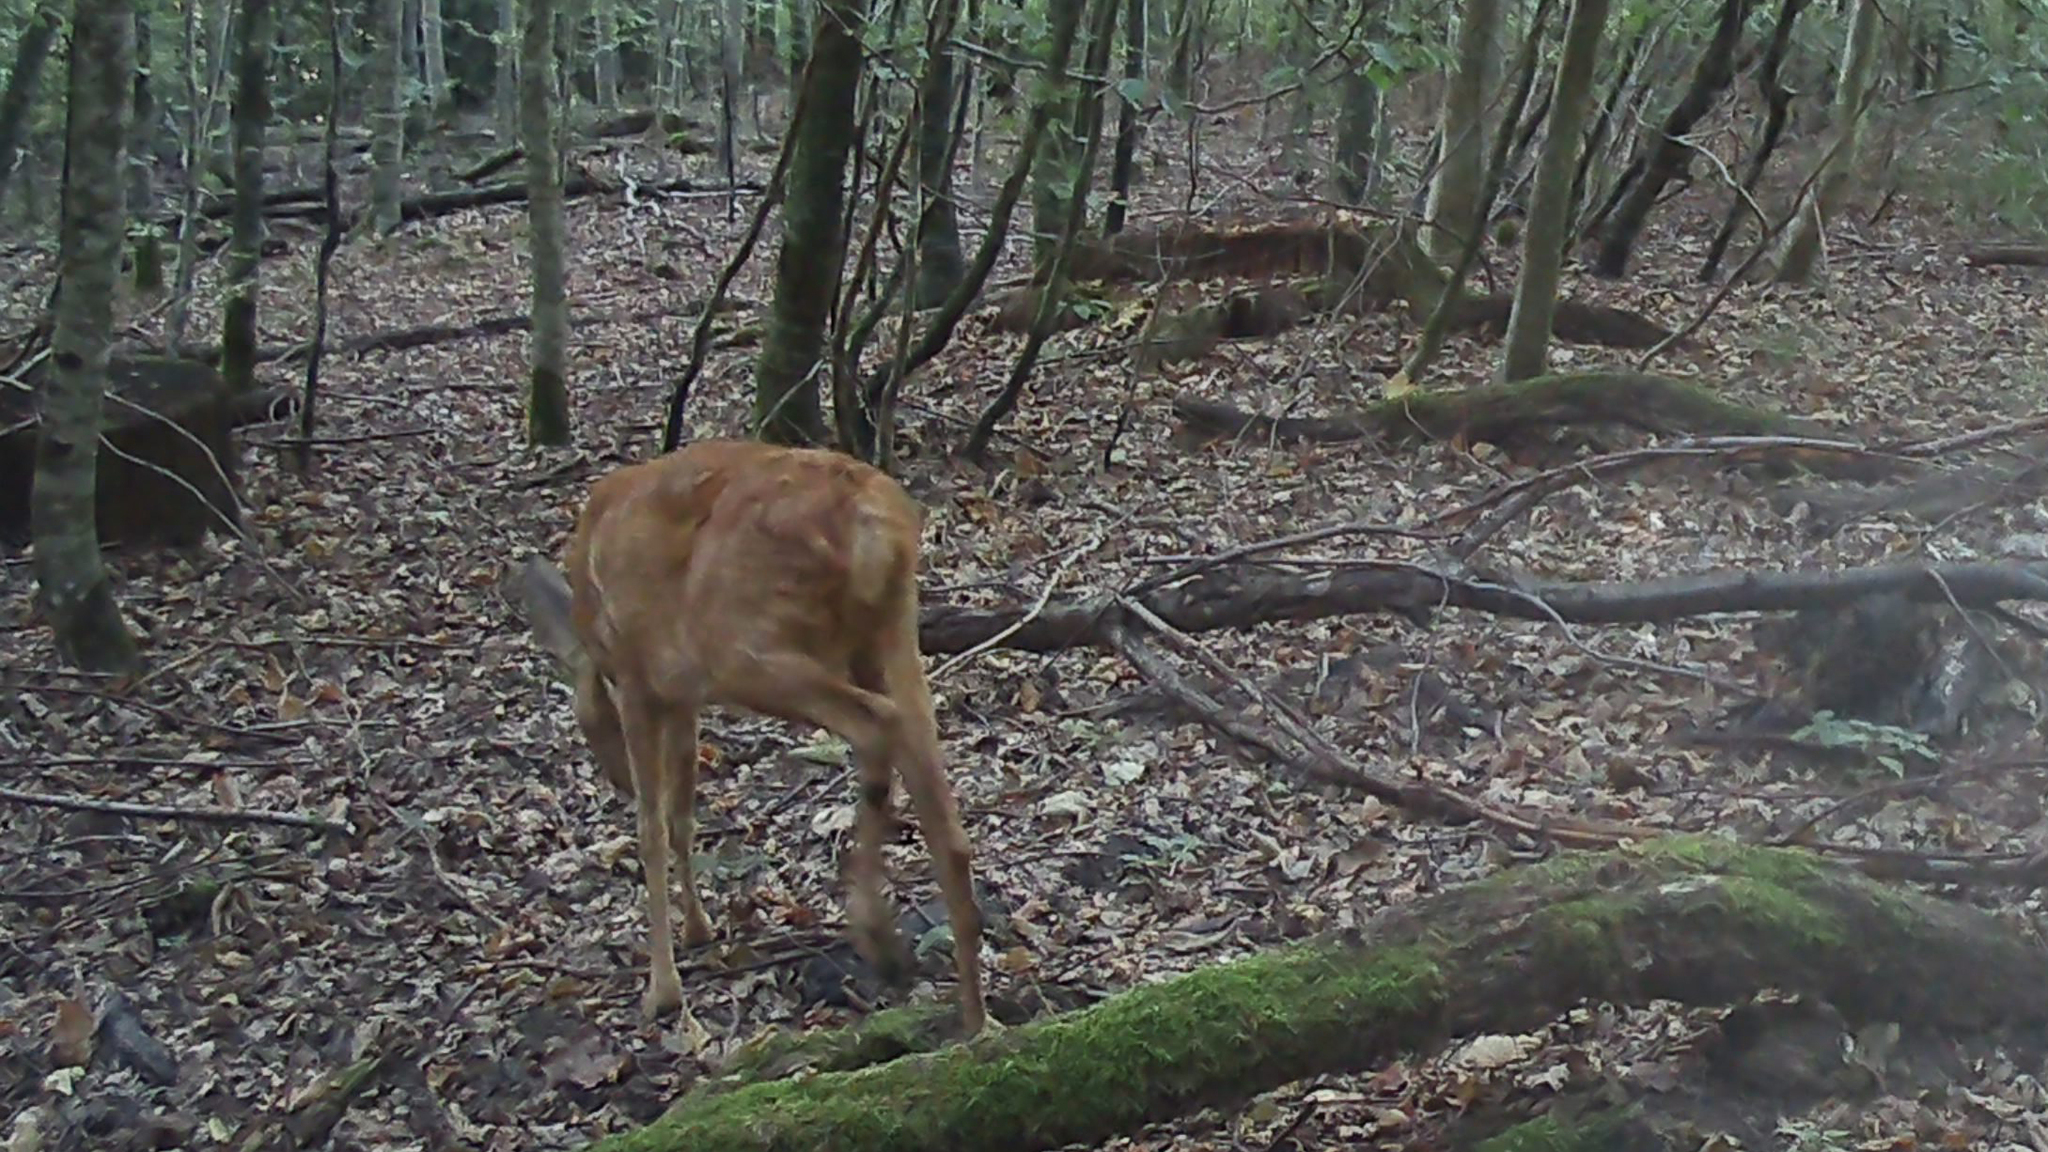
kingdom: Animalia
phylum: Chordata
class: Mammalia
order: Artiodactyla
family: Cervidae
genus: Capreolus
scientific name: Capreolus capreolus
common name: Western roe deer
